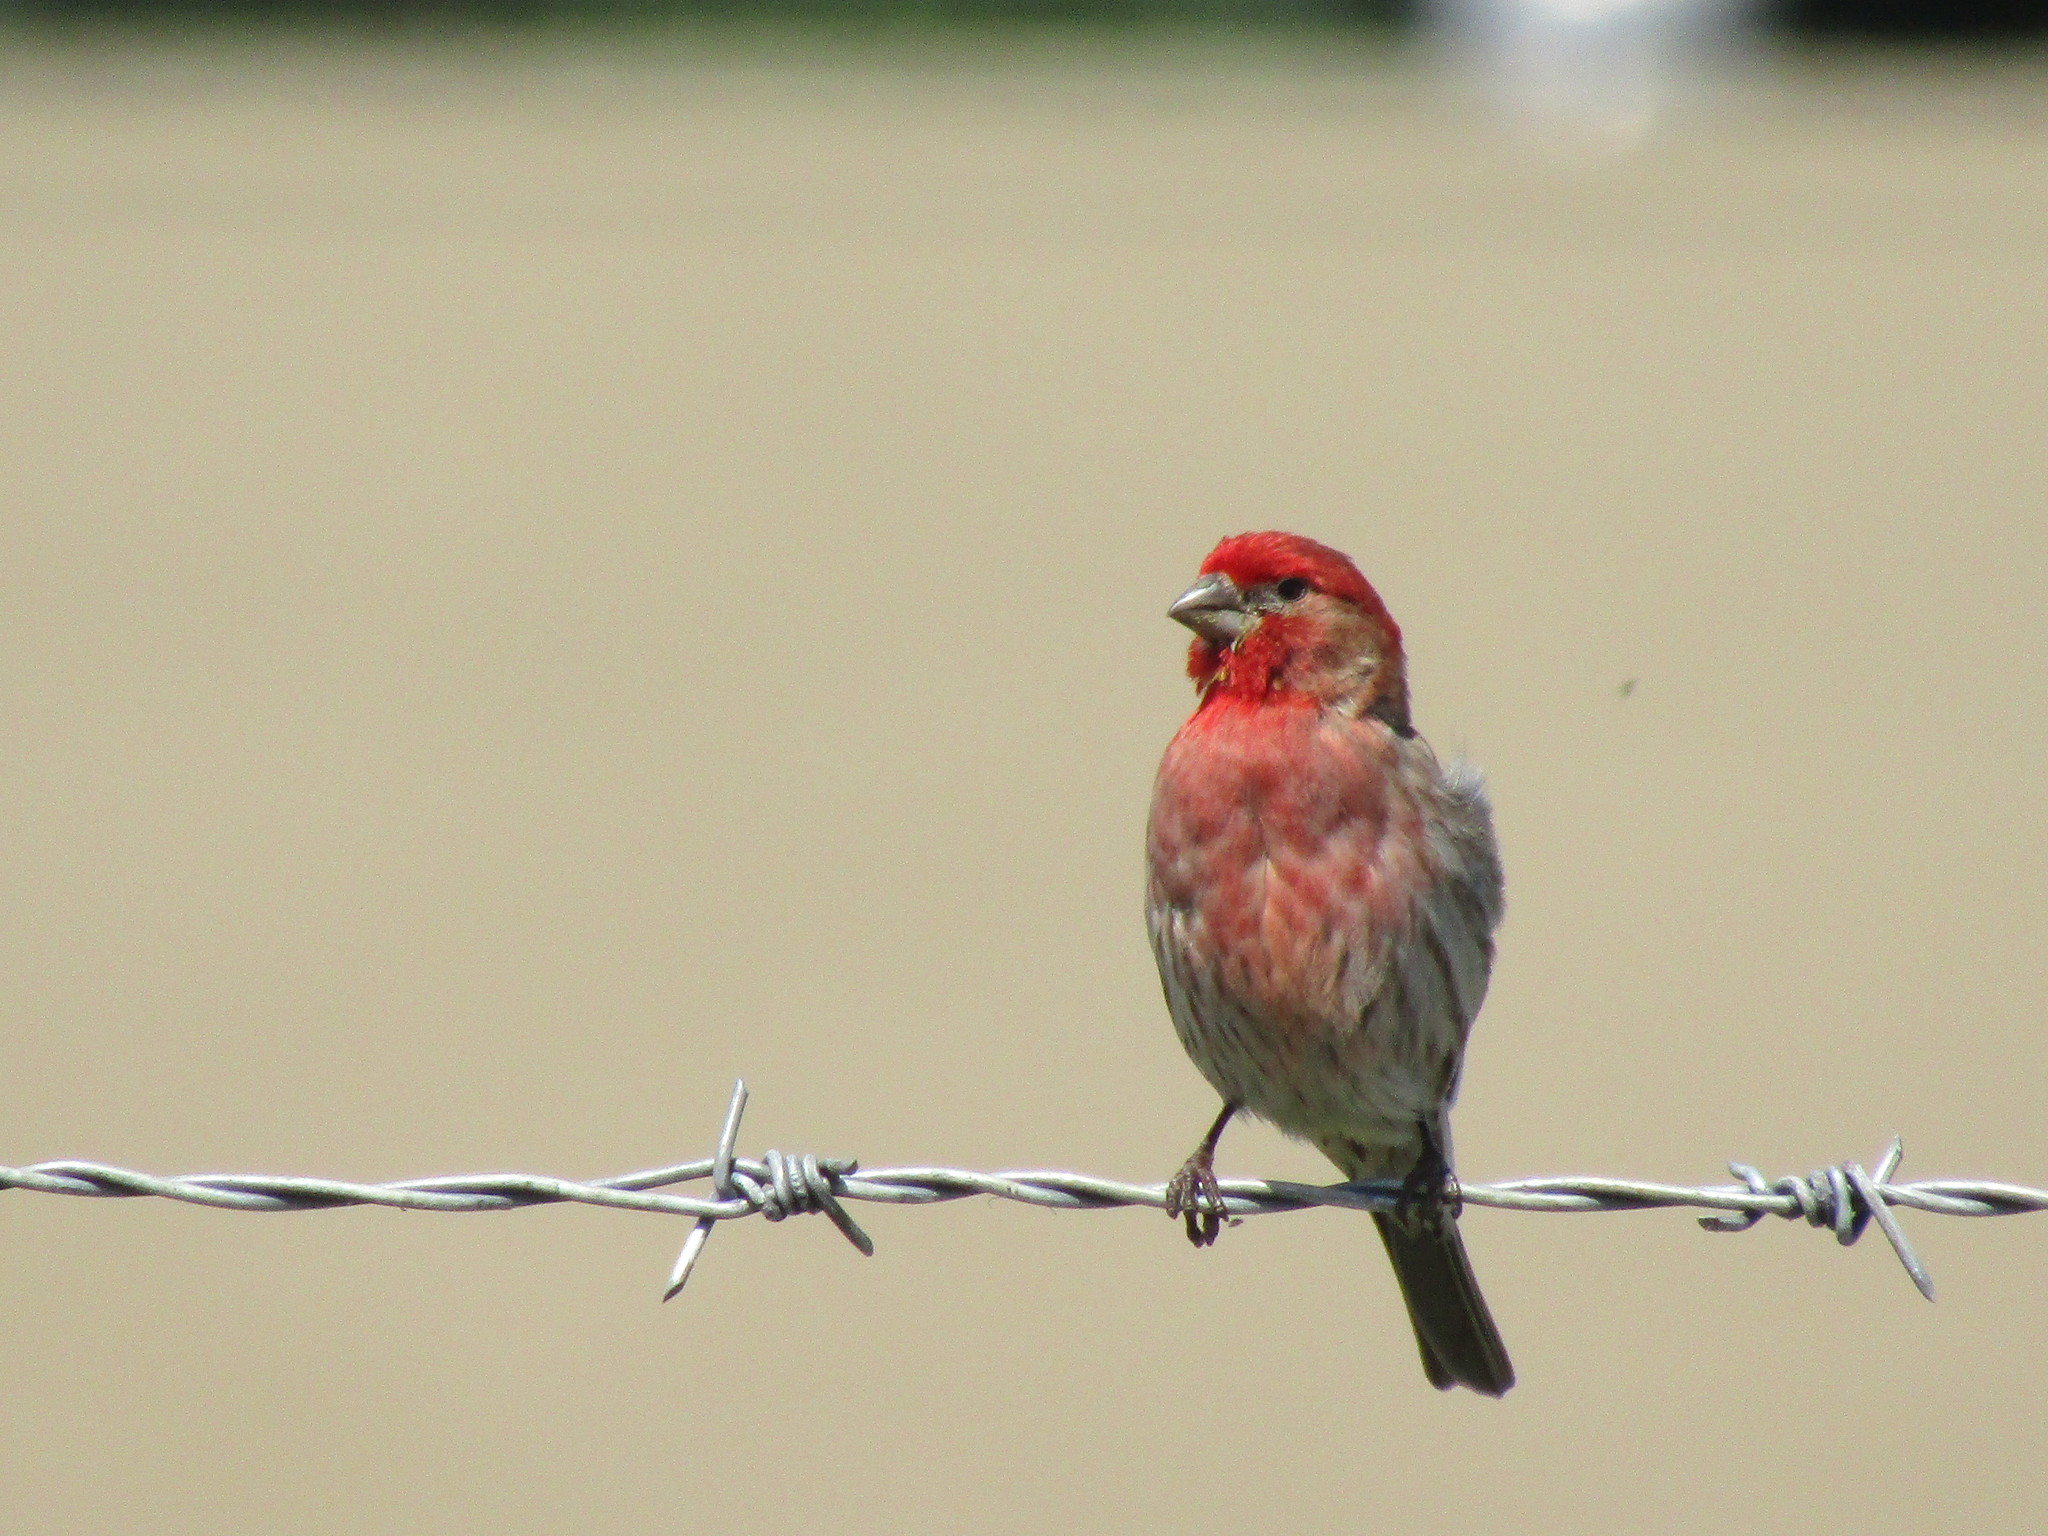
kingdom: Animalia
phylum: Chordata
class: Aves
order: Passeriformes
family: Fringillidae
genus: Haemorhous
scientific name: Haemorhous mexicanus
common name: House finch
